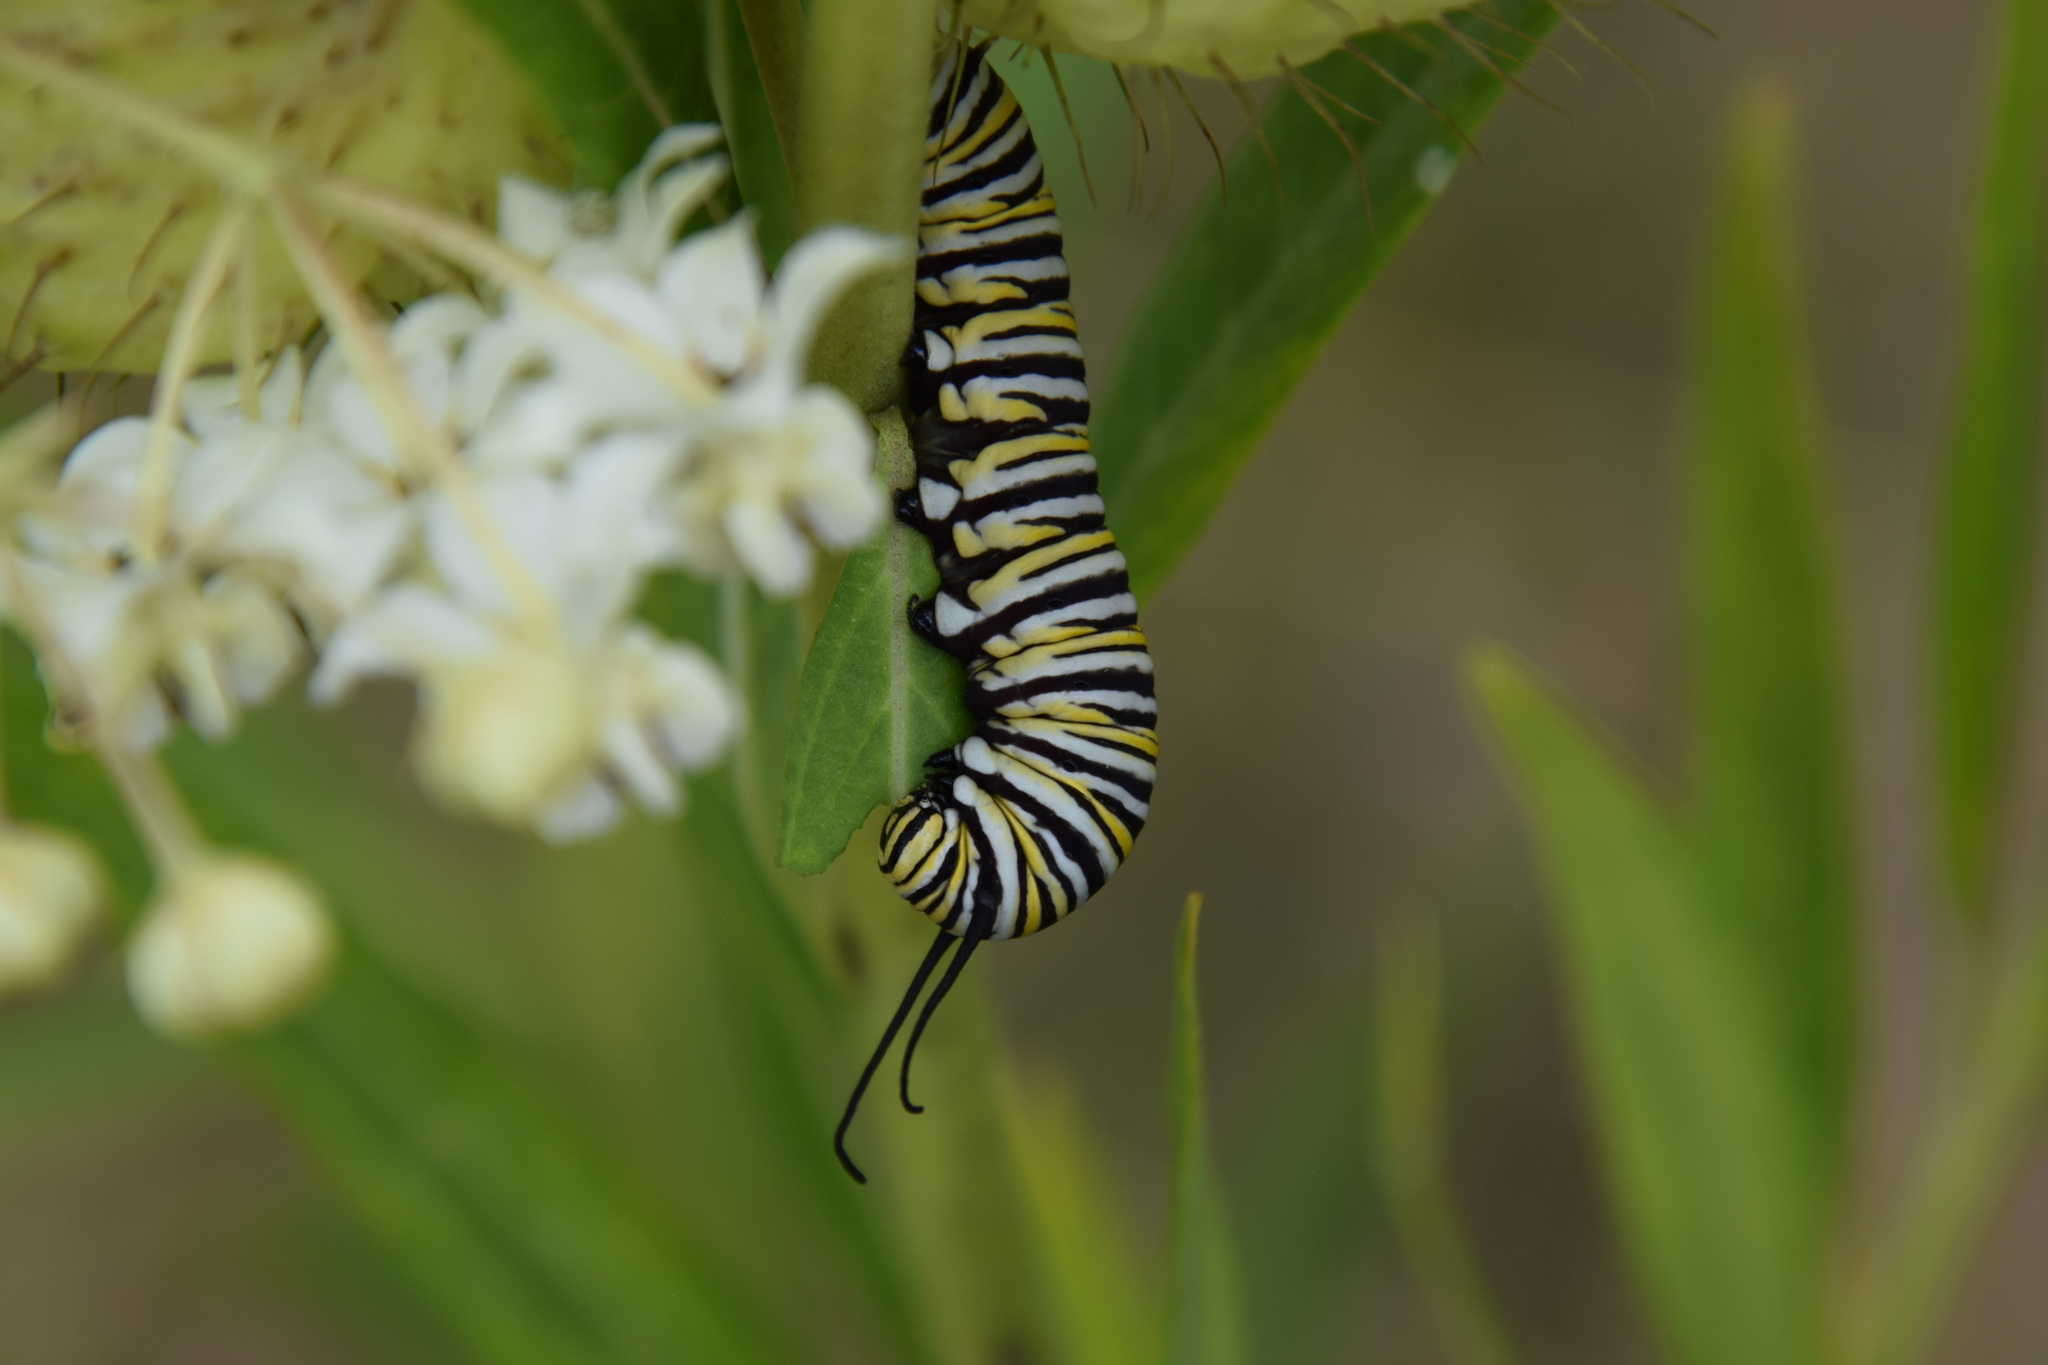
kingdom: Animalia
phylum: Arthropoda
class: Insecta
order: Lepidoptera
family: Nymphalidae
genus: Danaus
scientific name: Danaus plexippus
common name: Monarch
